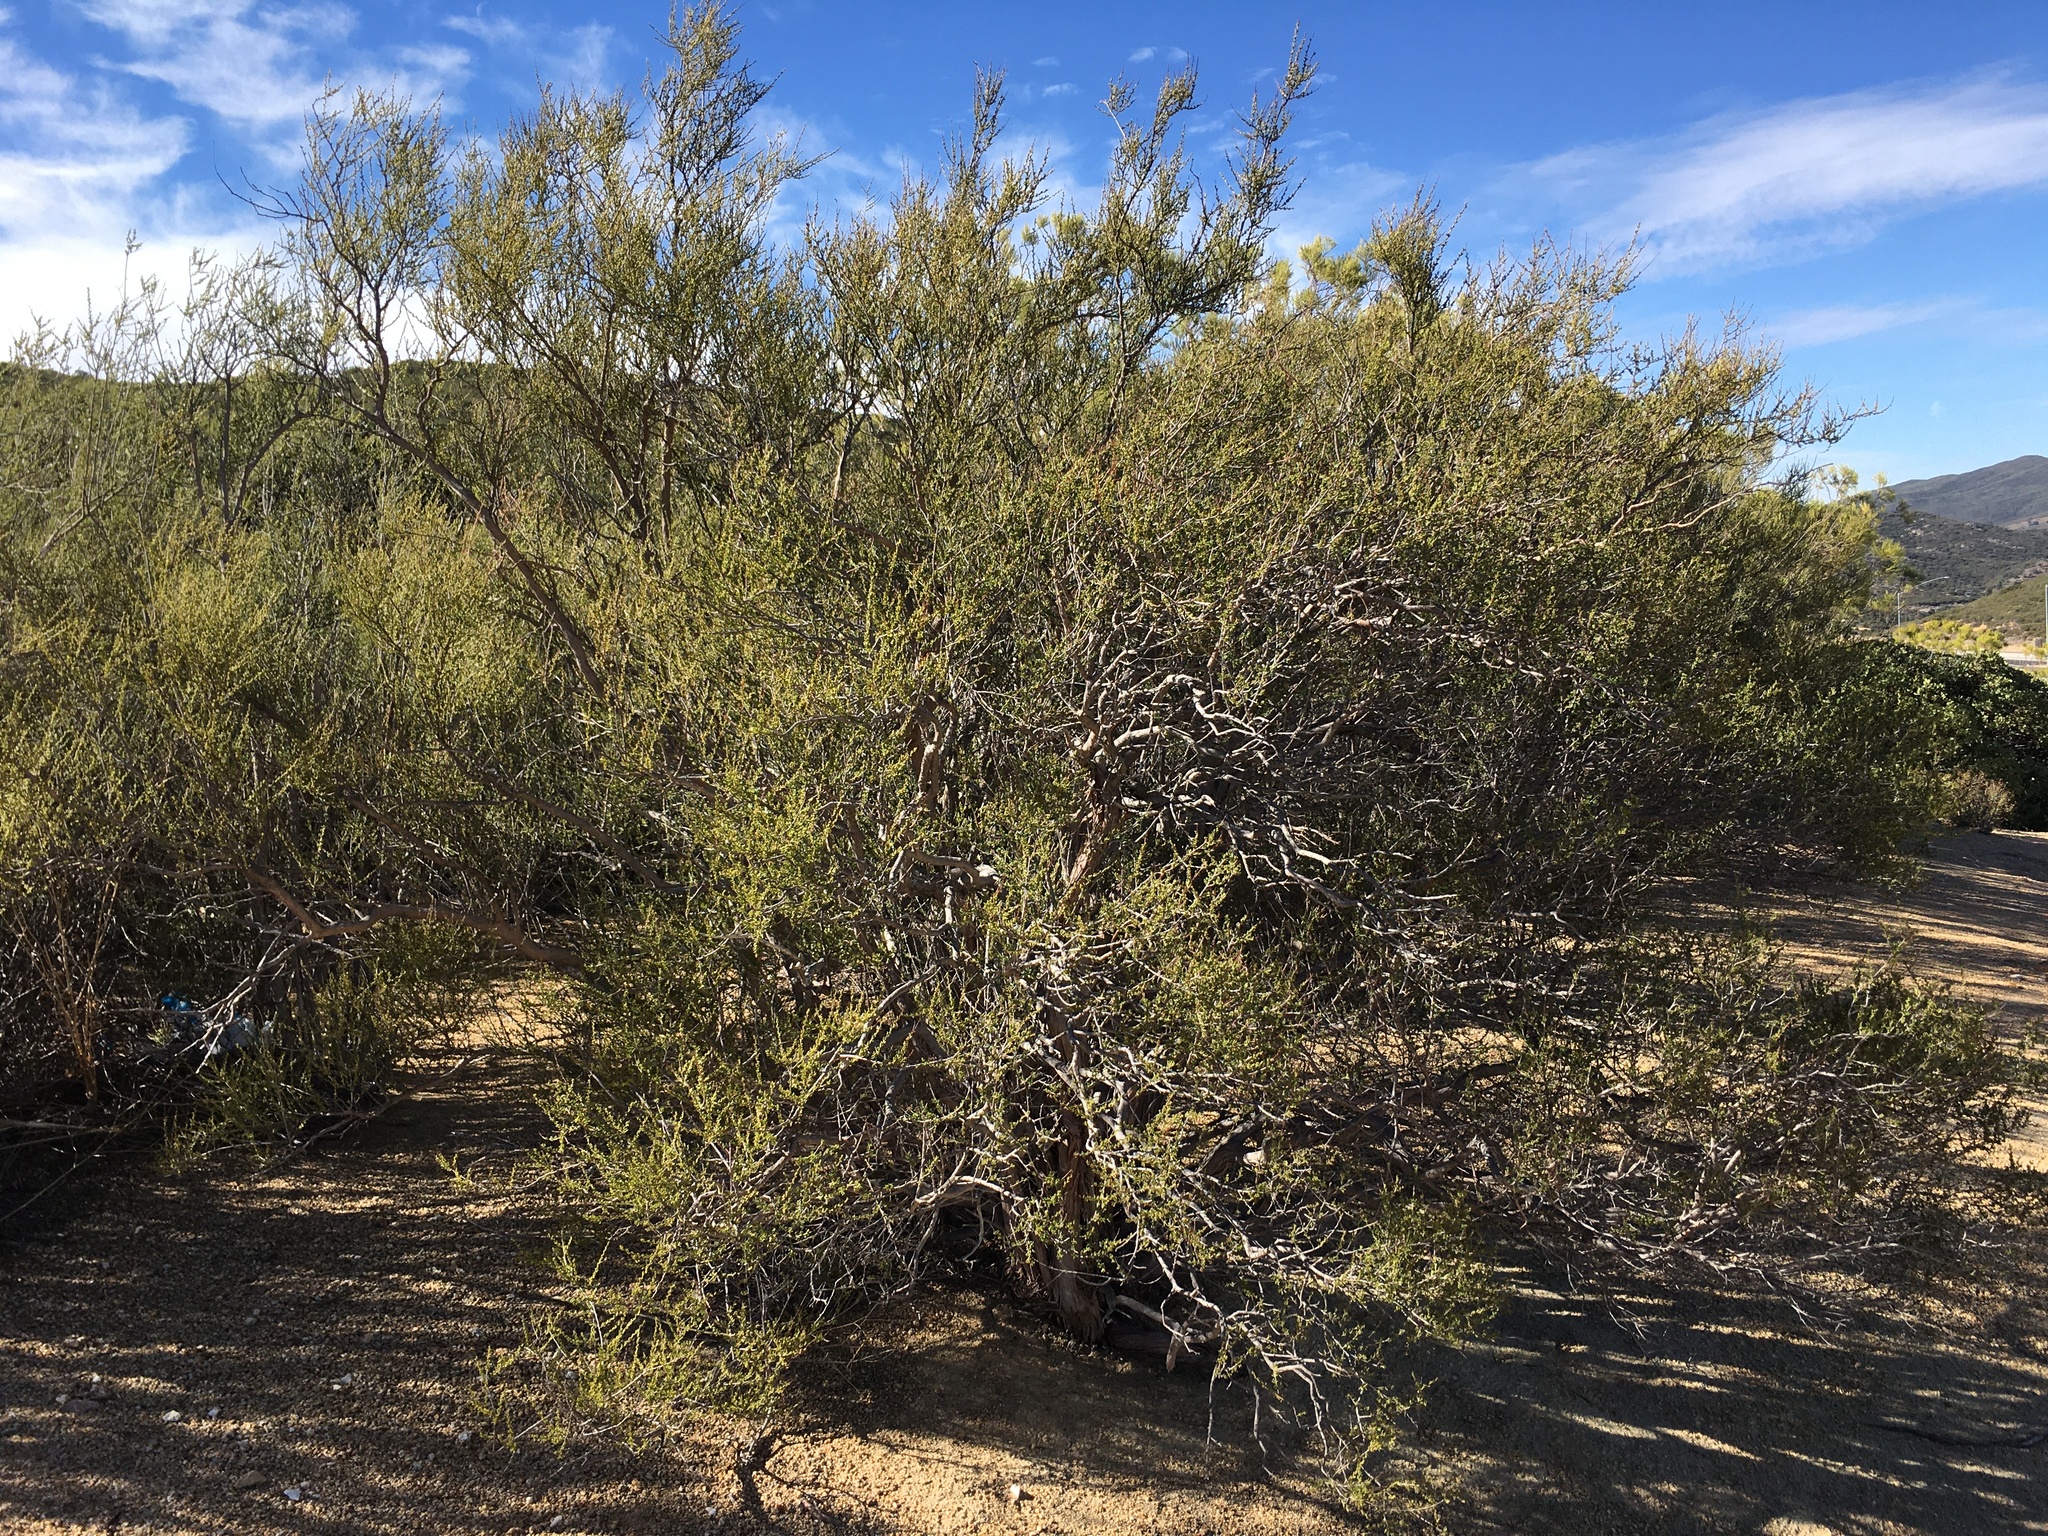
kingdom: Plantae
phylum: Tracheophyta
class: Magnoliopsida
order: Rosales
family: Rosaceae
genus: Adenostoma
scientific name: Adenostoma fasciculatum
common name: Chamise
